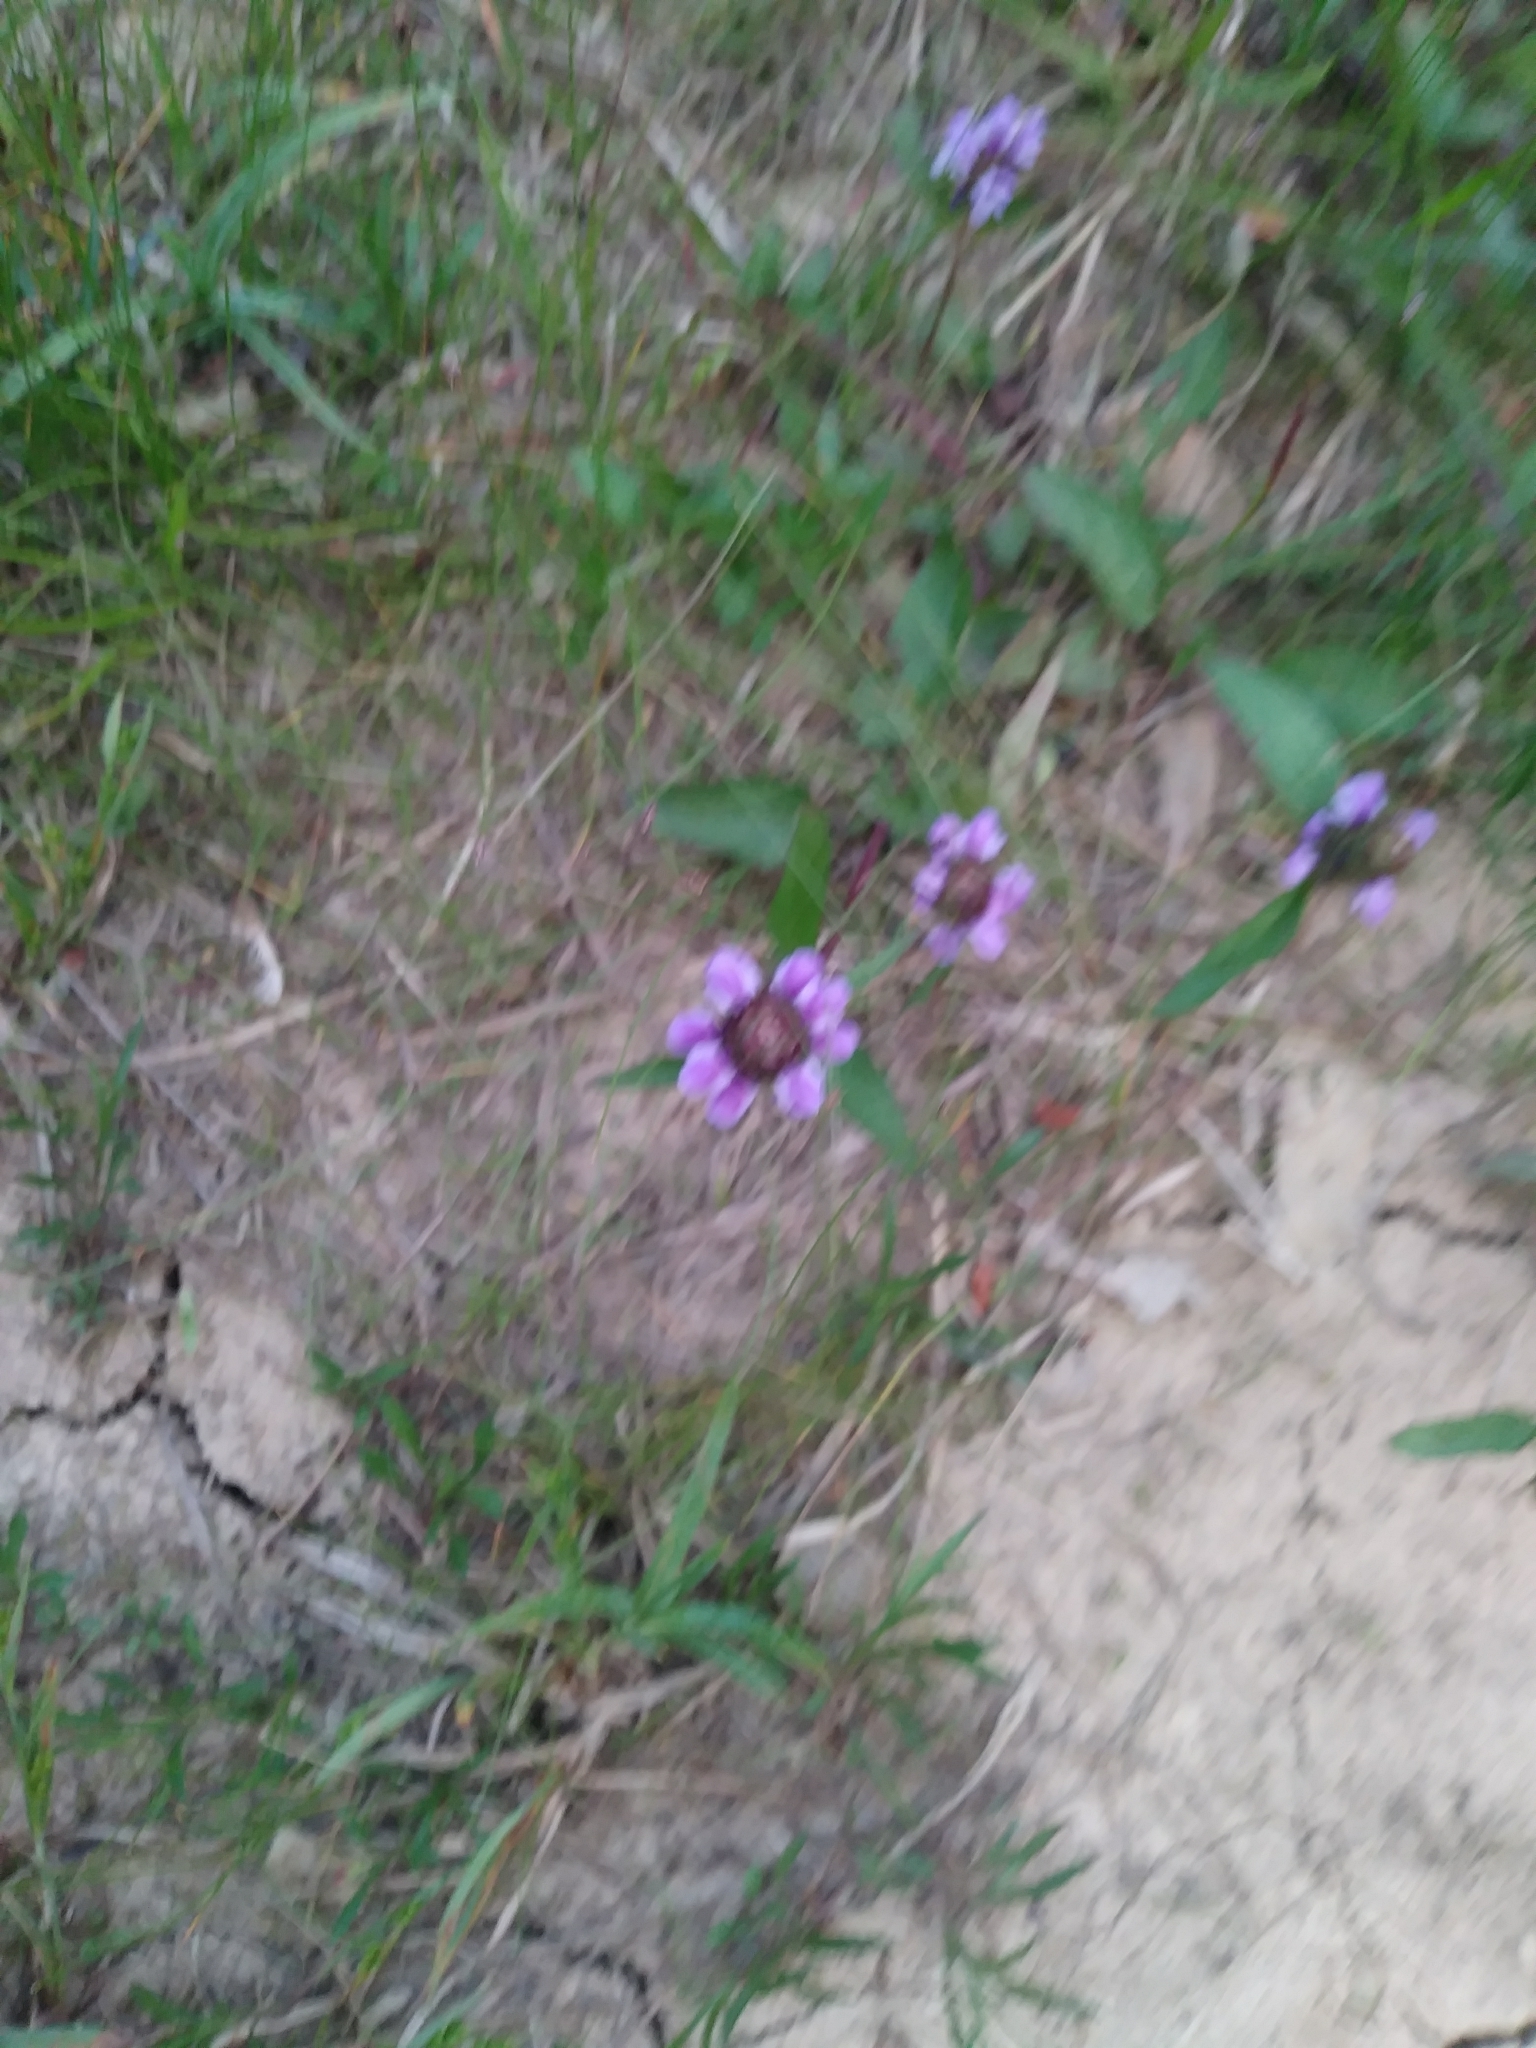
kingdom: Plantae
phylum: Tracheophyta
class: Magnoliopsida
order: Lamiales
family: Lamiaceae
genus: Prunella
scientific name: Prunella vulgaris
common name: Heal-all
